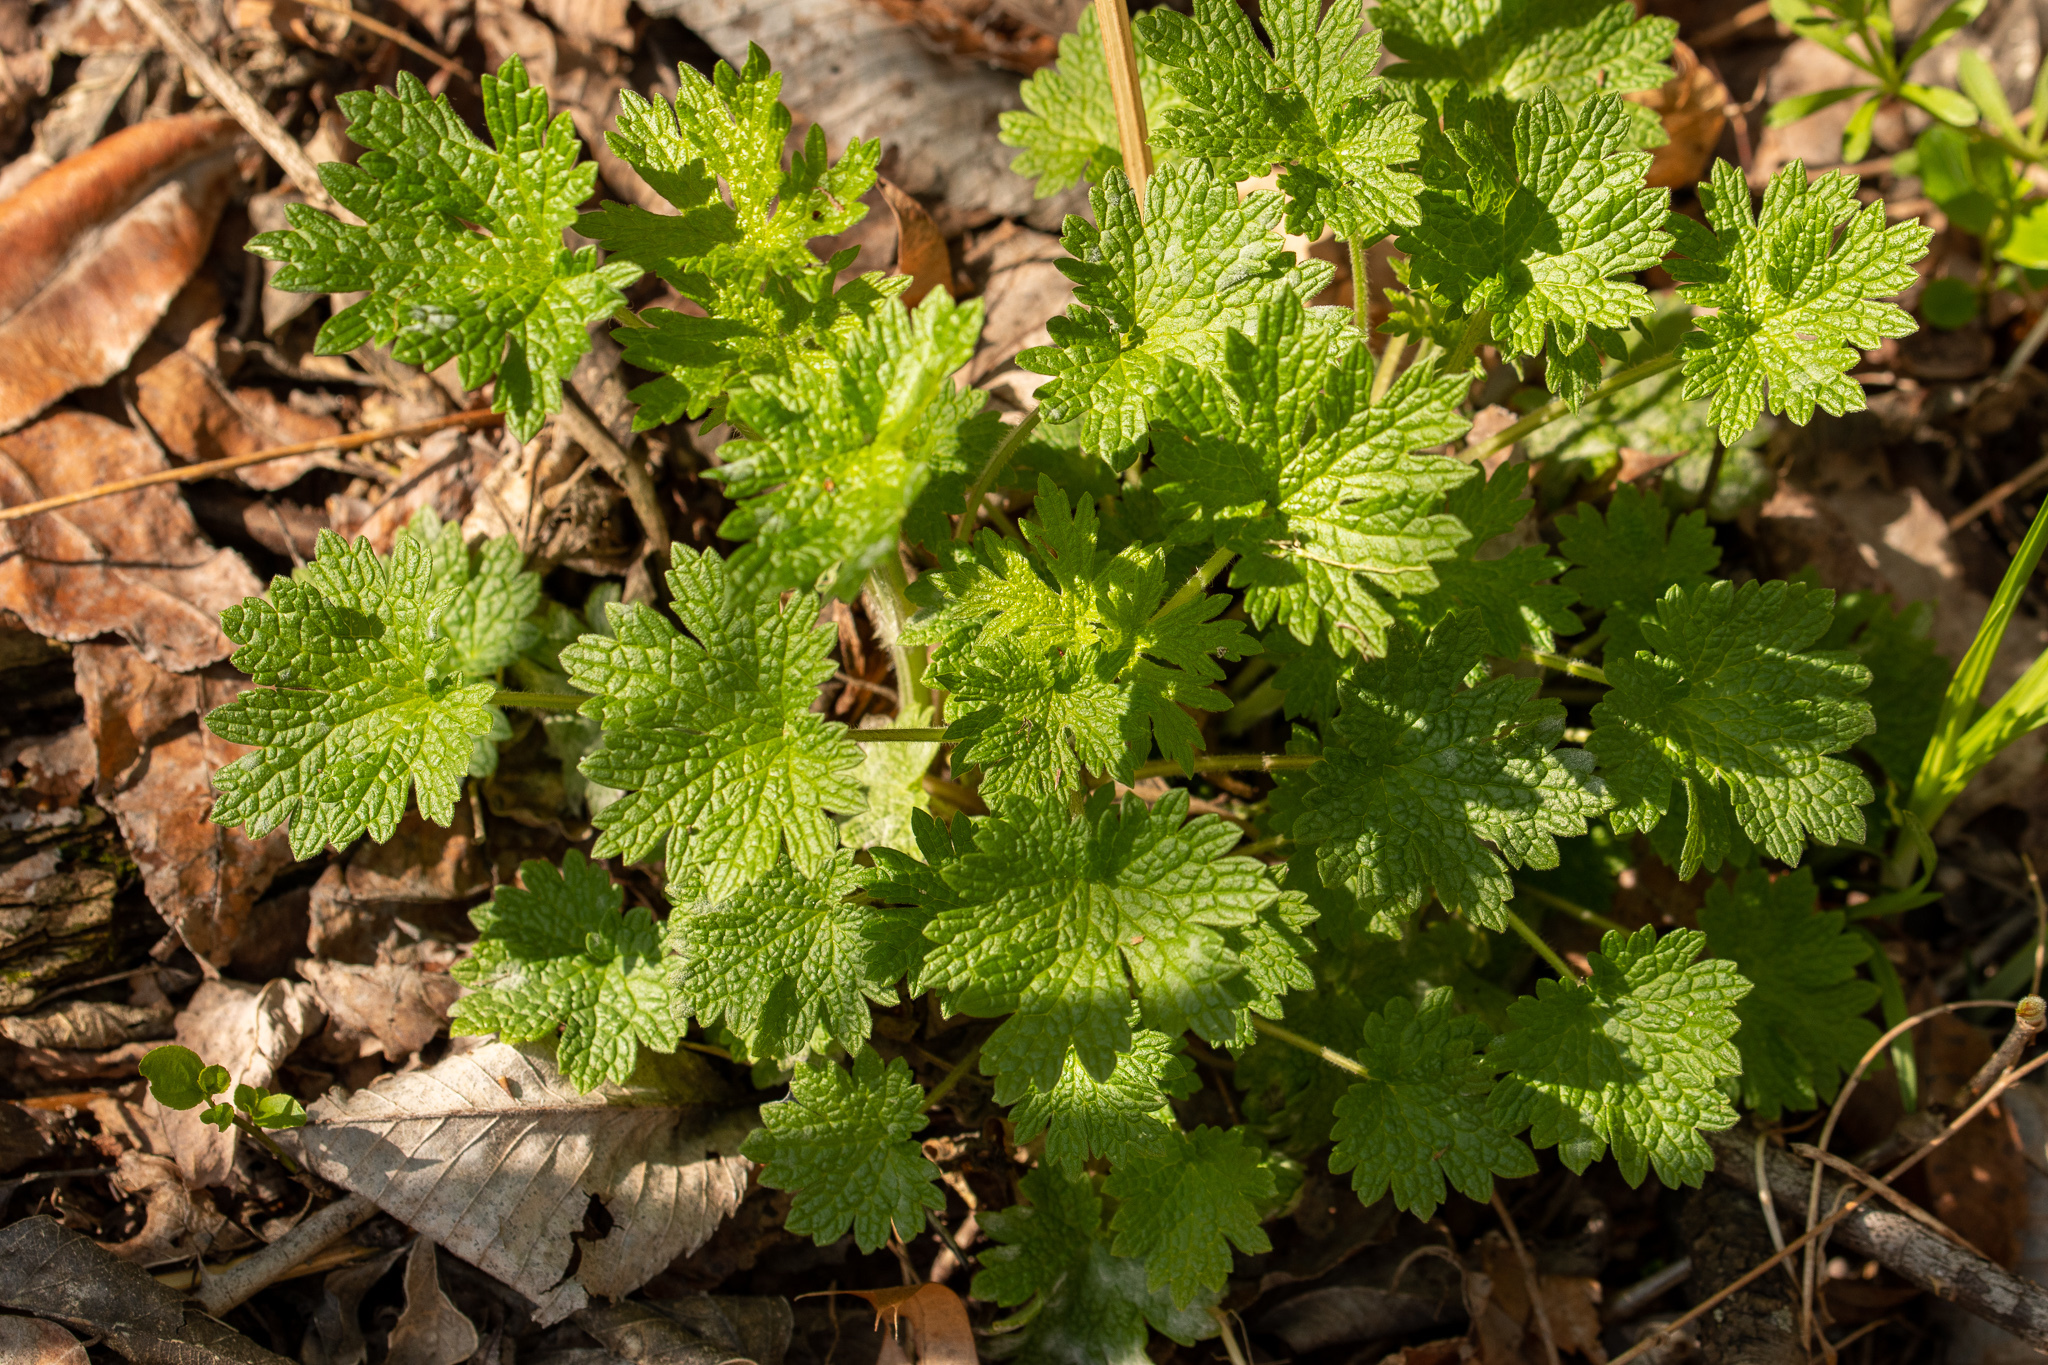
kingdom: Plantae
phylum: Tracheophyta
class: Magnoliopsida
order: Lamiales
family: Lamiaceae
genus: Leonurus
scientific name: Leonurus cardiaca
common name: Motherwort
